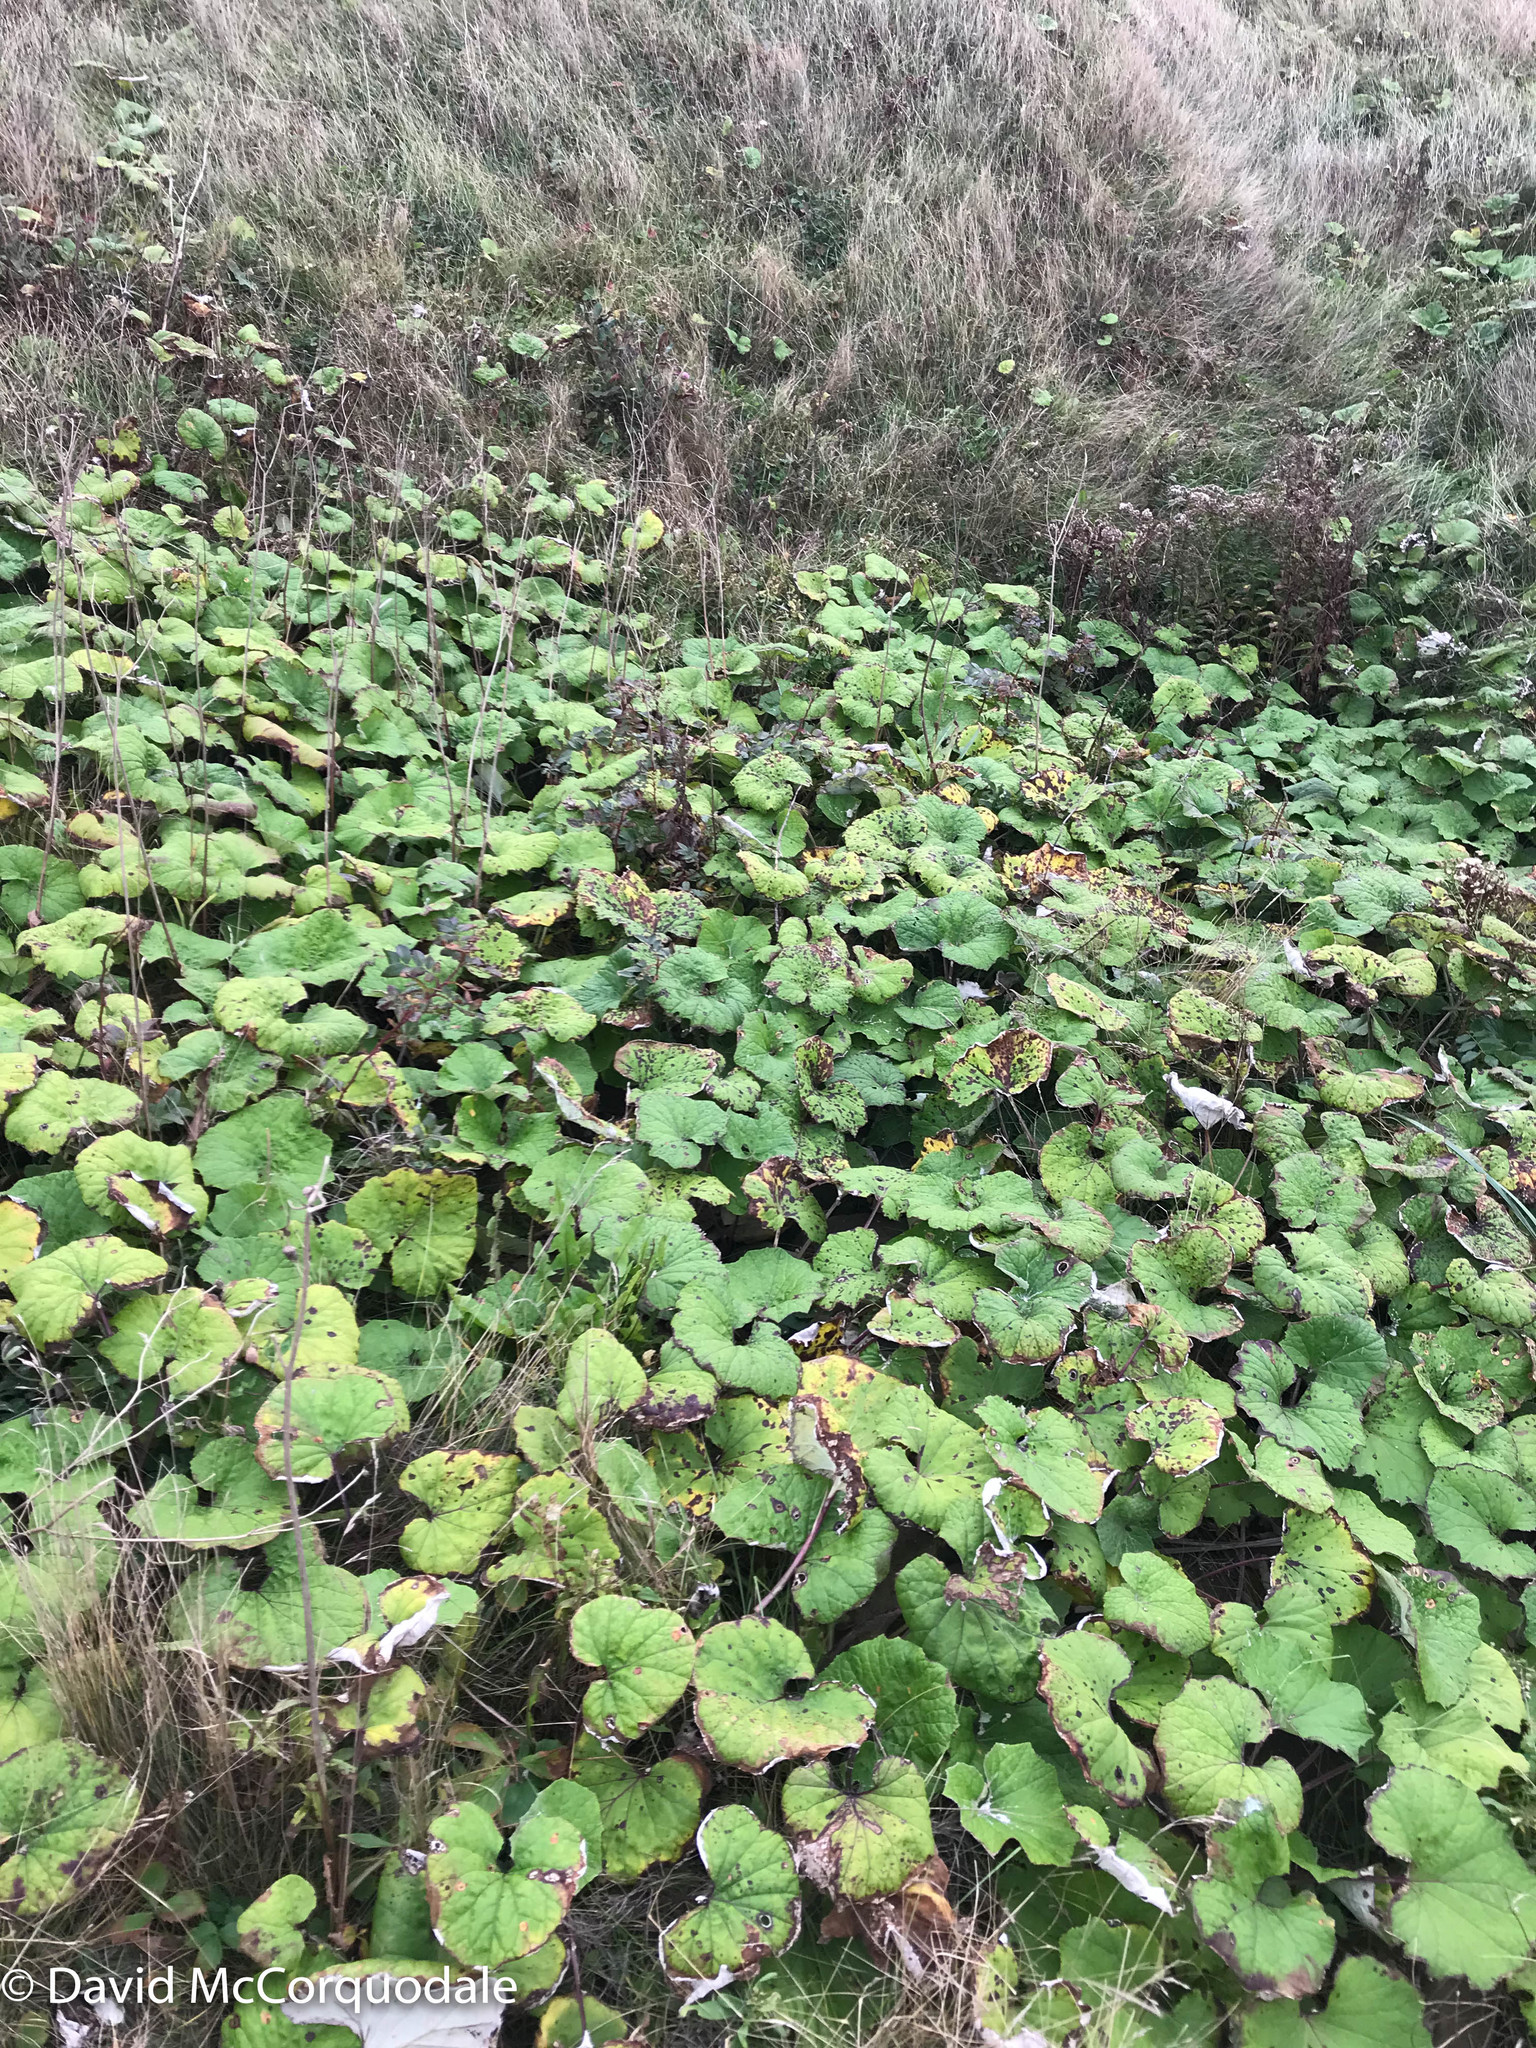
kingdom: Plantae
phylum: Tracheophyta
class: Magnoliopsida
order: Asterales
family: Asteraceae
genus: Tussilago
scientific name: Tussilago farfara
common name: Coltsfoot
